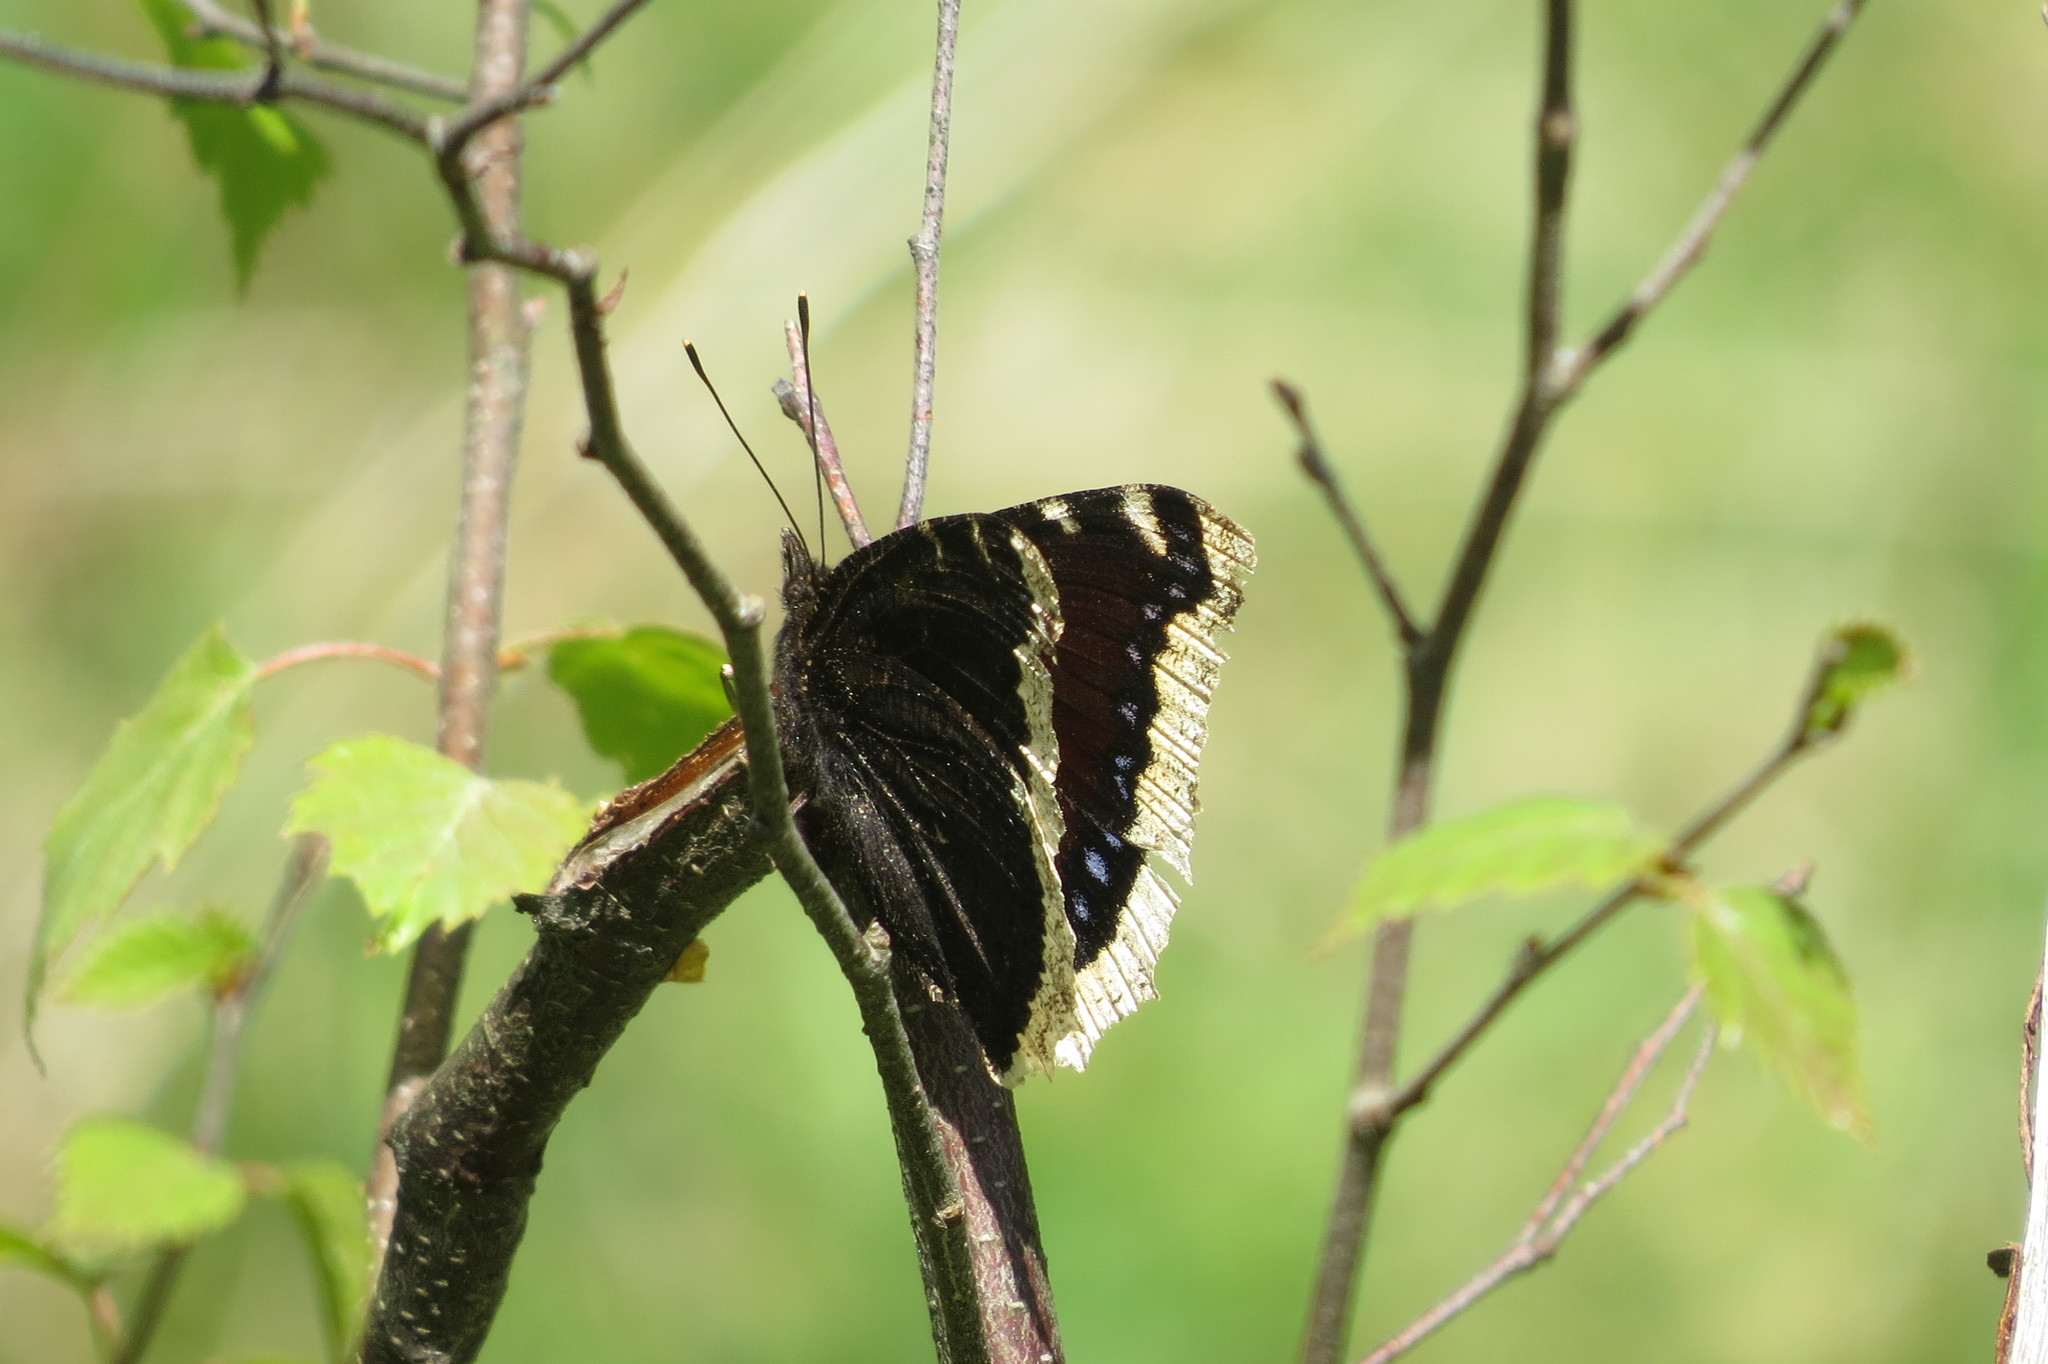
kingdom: Animalia
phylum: Arthropoda
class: Insecta
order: Lepidoptera
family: Nymphalidae
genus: Nymphalis
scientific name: Nymphalis antiopa
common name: Camberwell beauty
